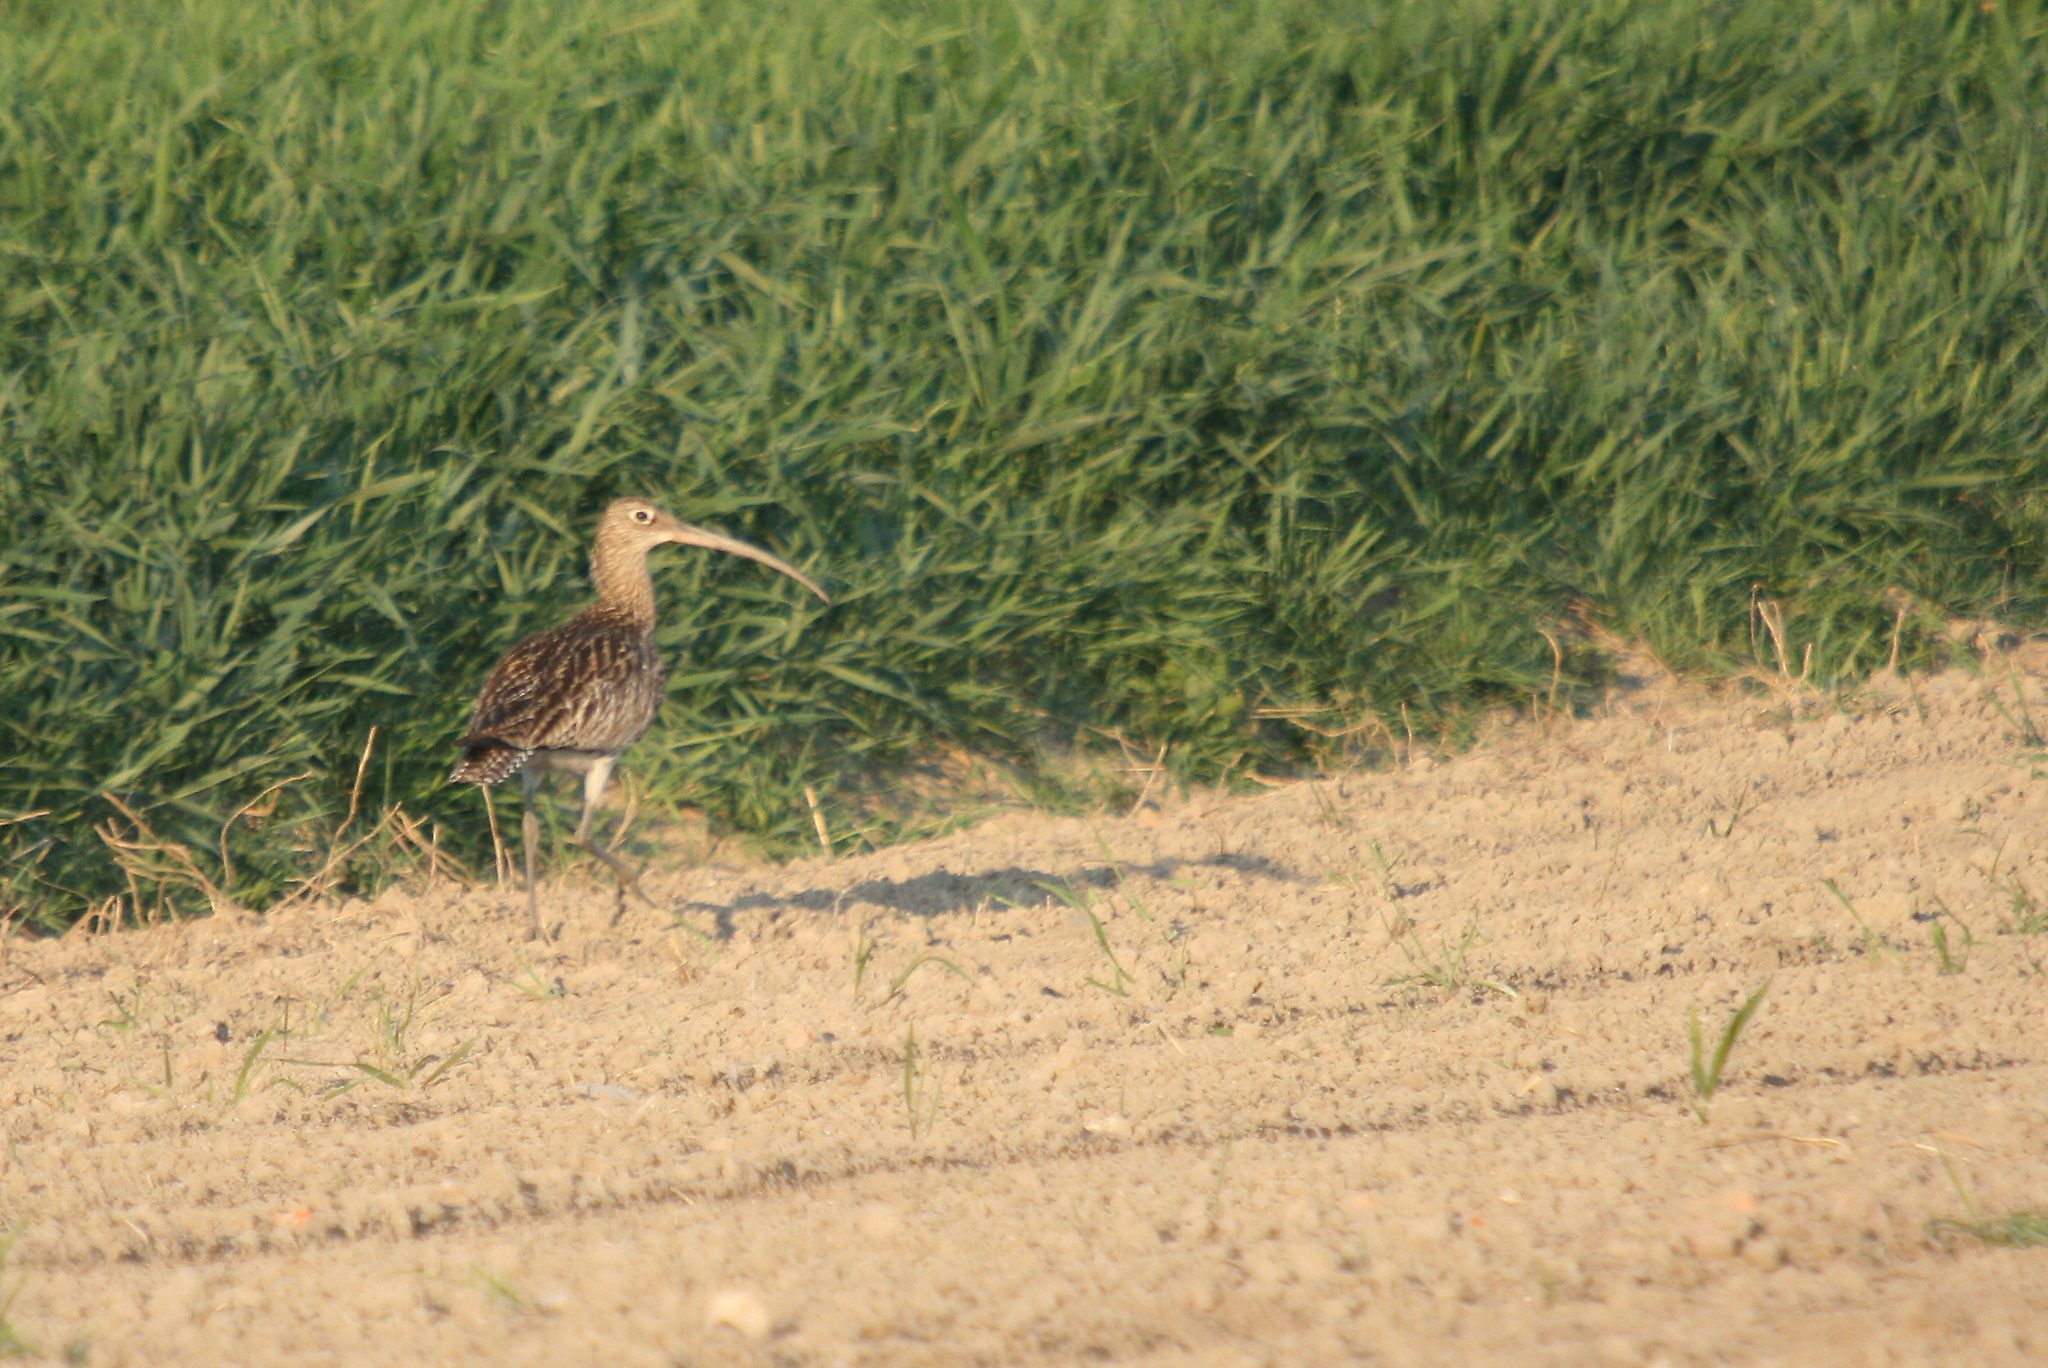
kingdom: Animalia
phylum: Chordata
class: Aves
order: Charadriiformes
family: Scolopacidae
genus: Numenius
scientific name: Numenius arquata
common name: Eurasian curlew
